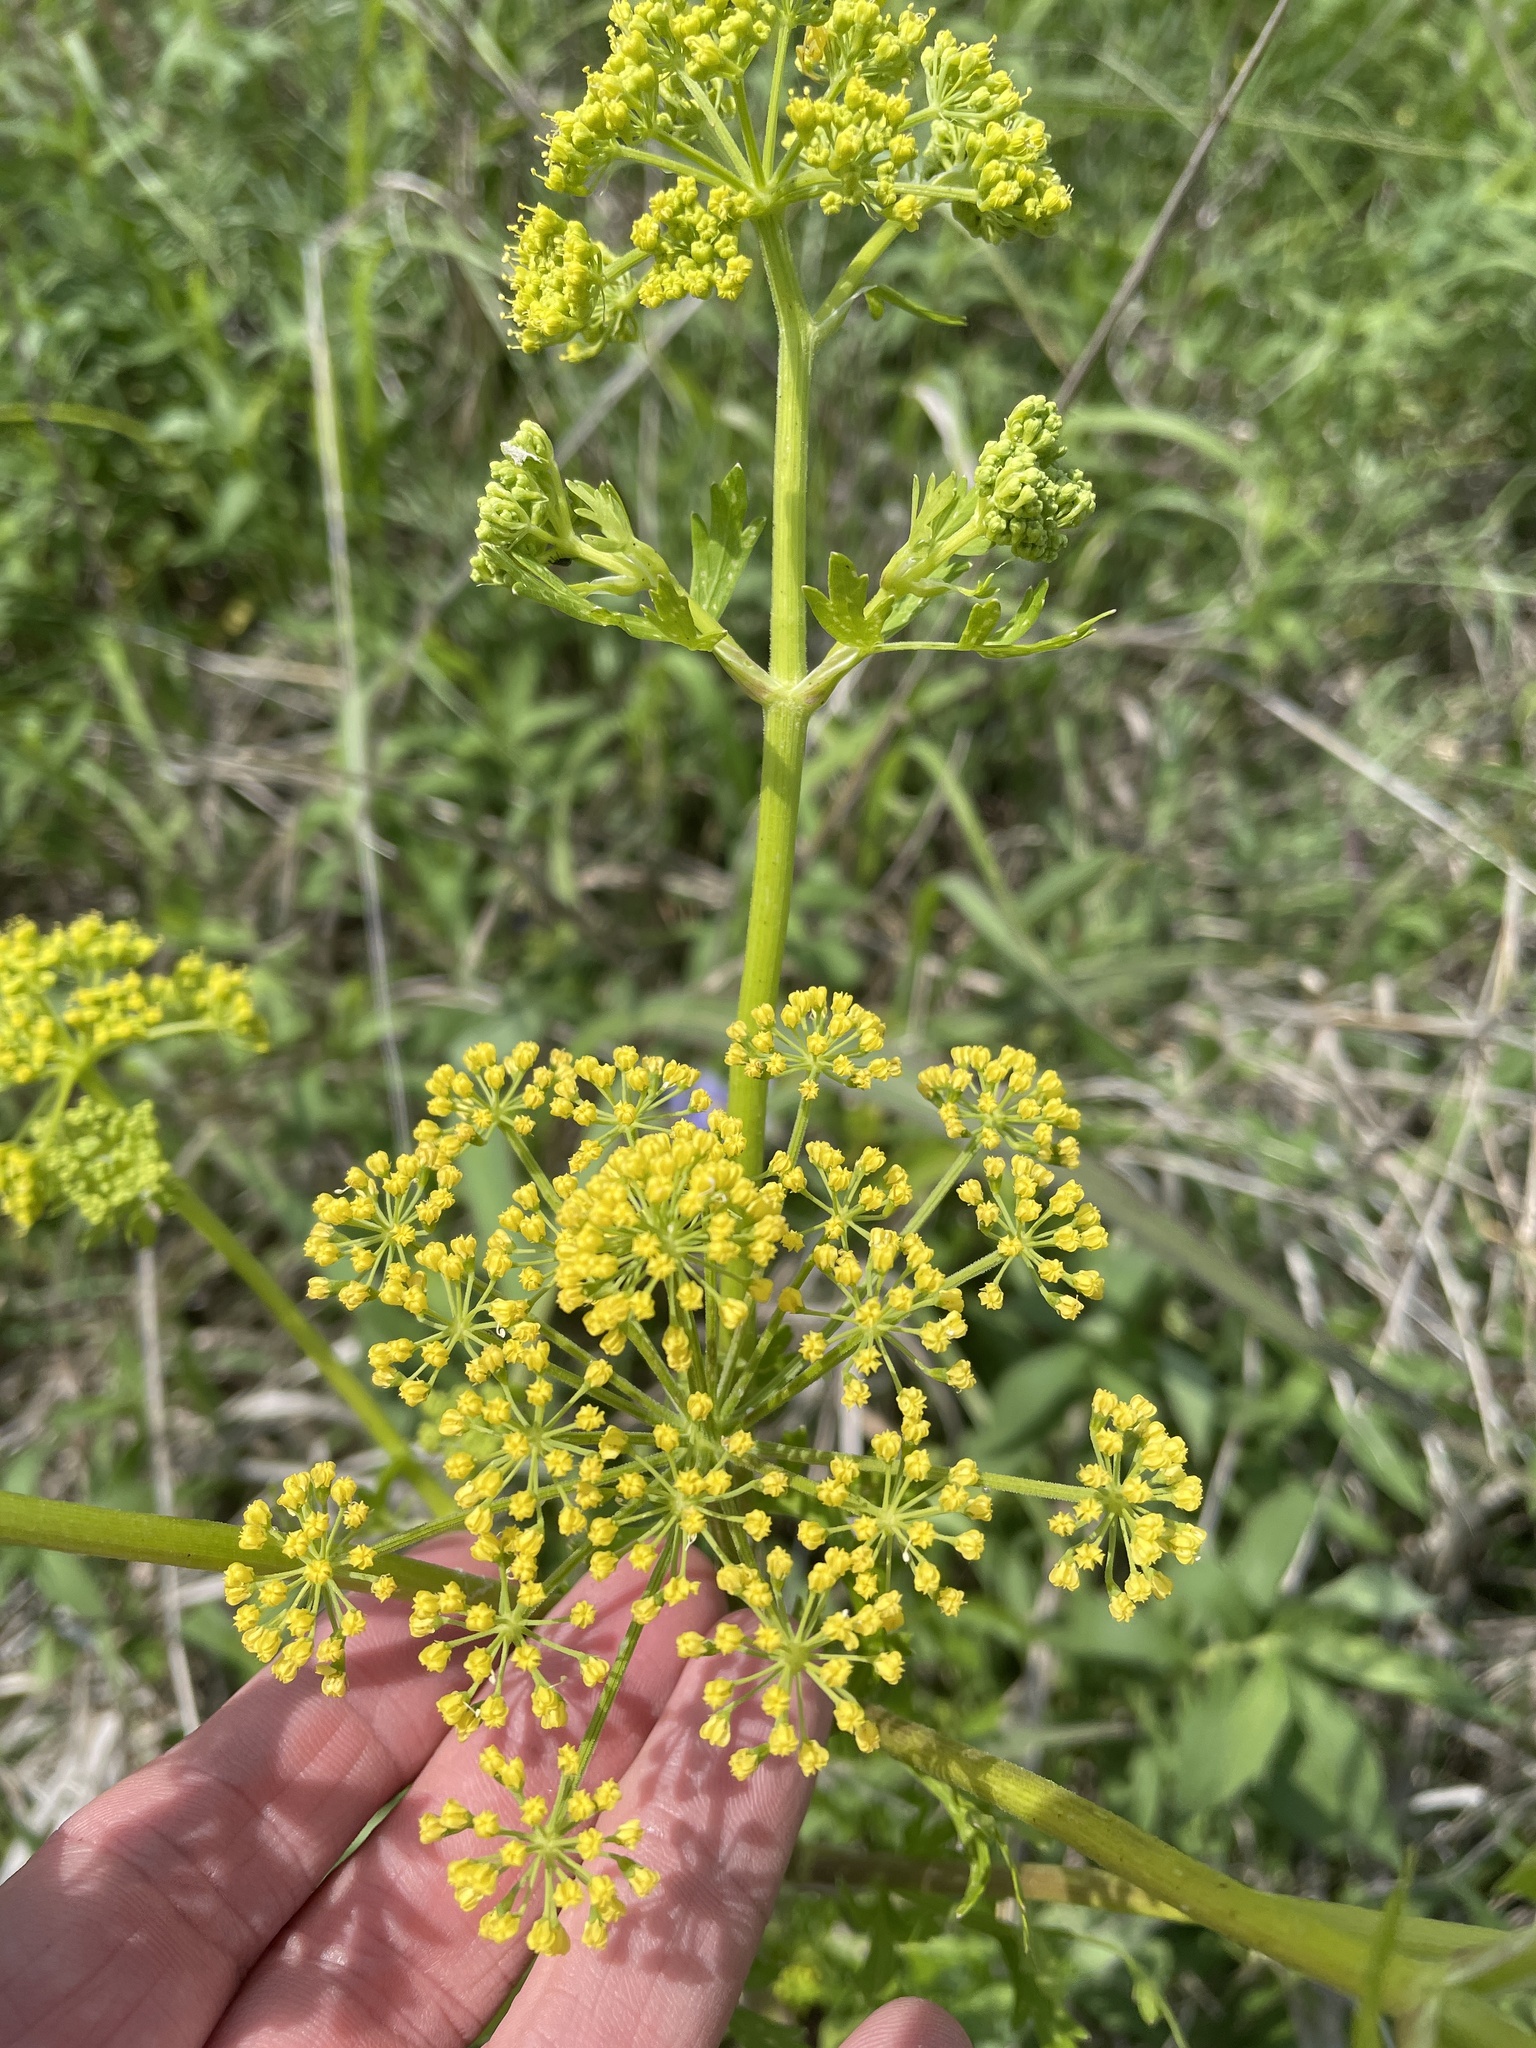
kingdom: Plantae
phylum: Tracheophyta
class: Magnoliopsida
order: Apiales
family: Apiaceae
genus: Polytaenia
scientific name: Polytaenia texana
